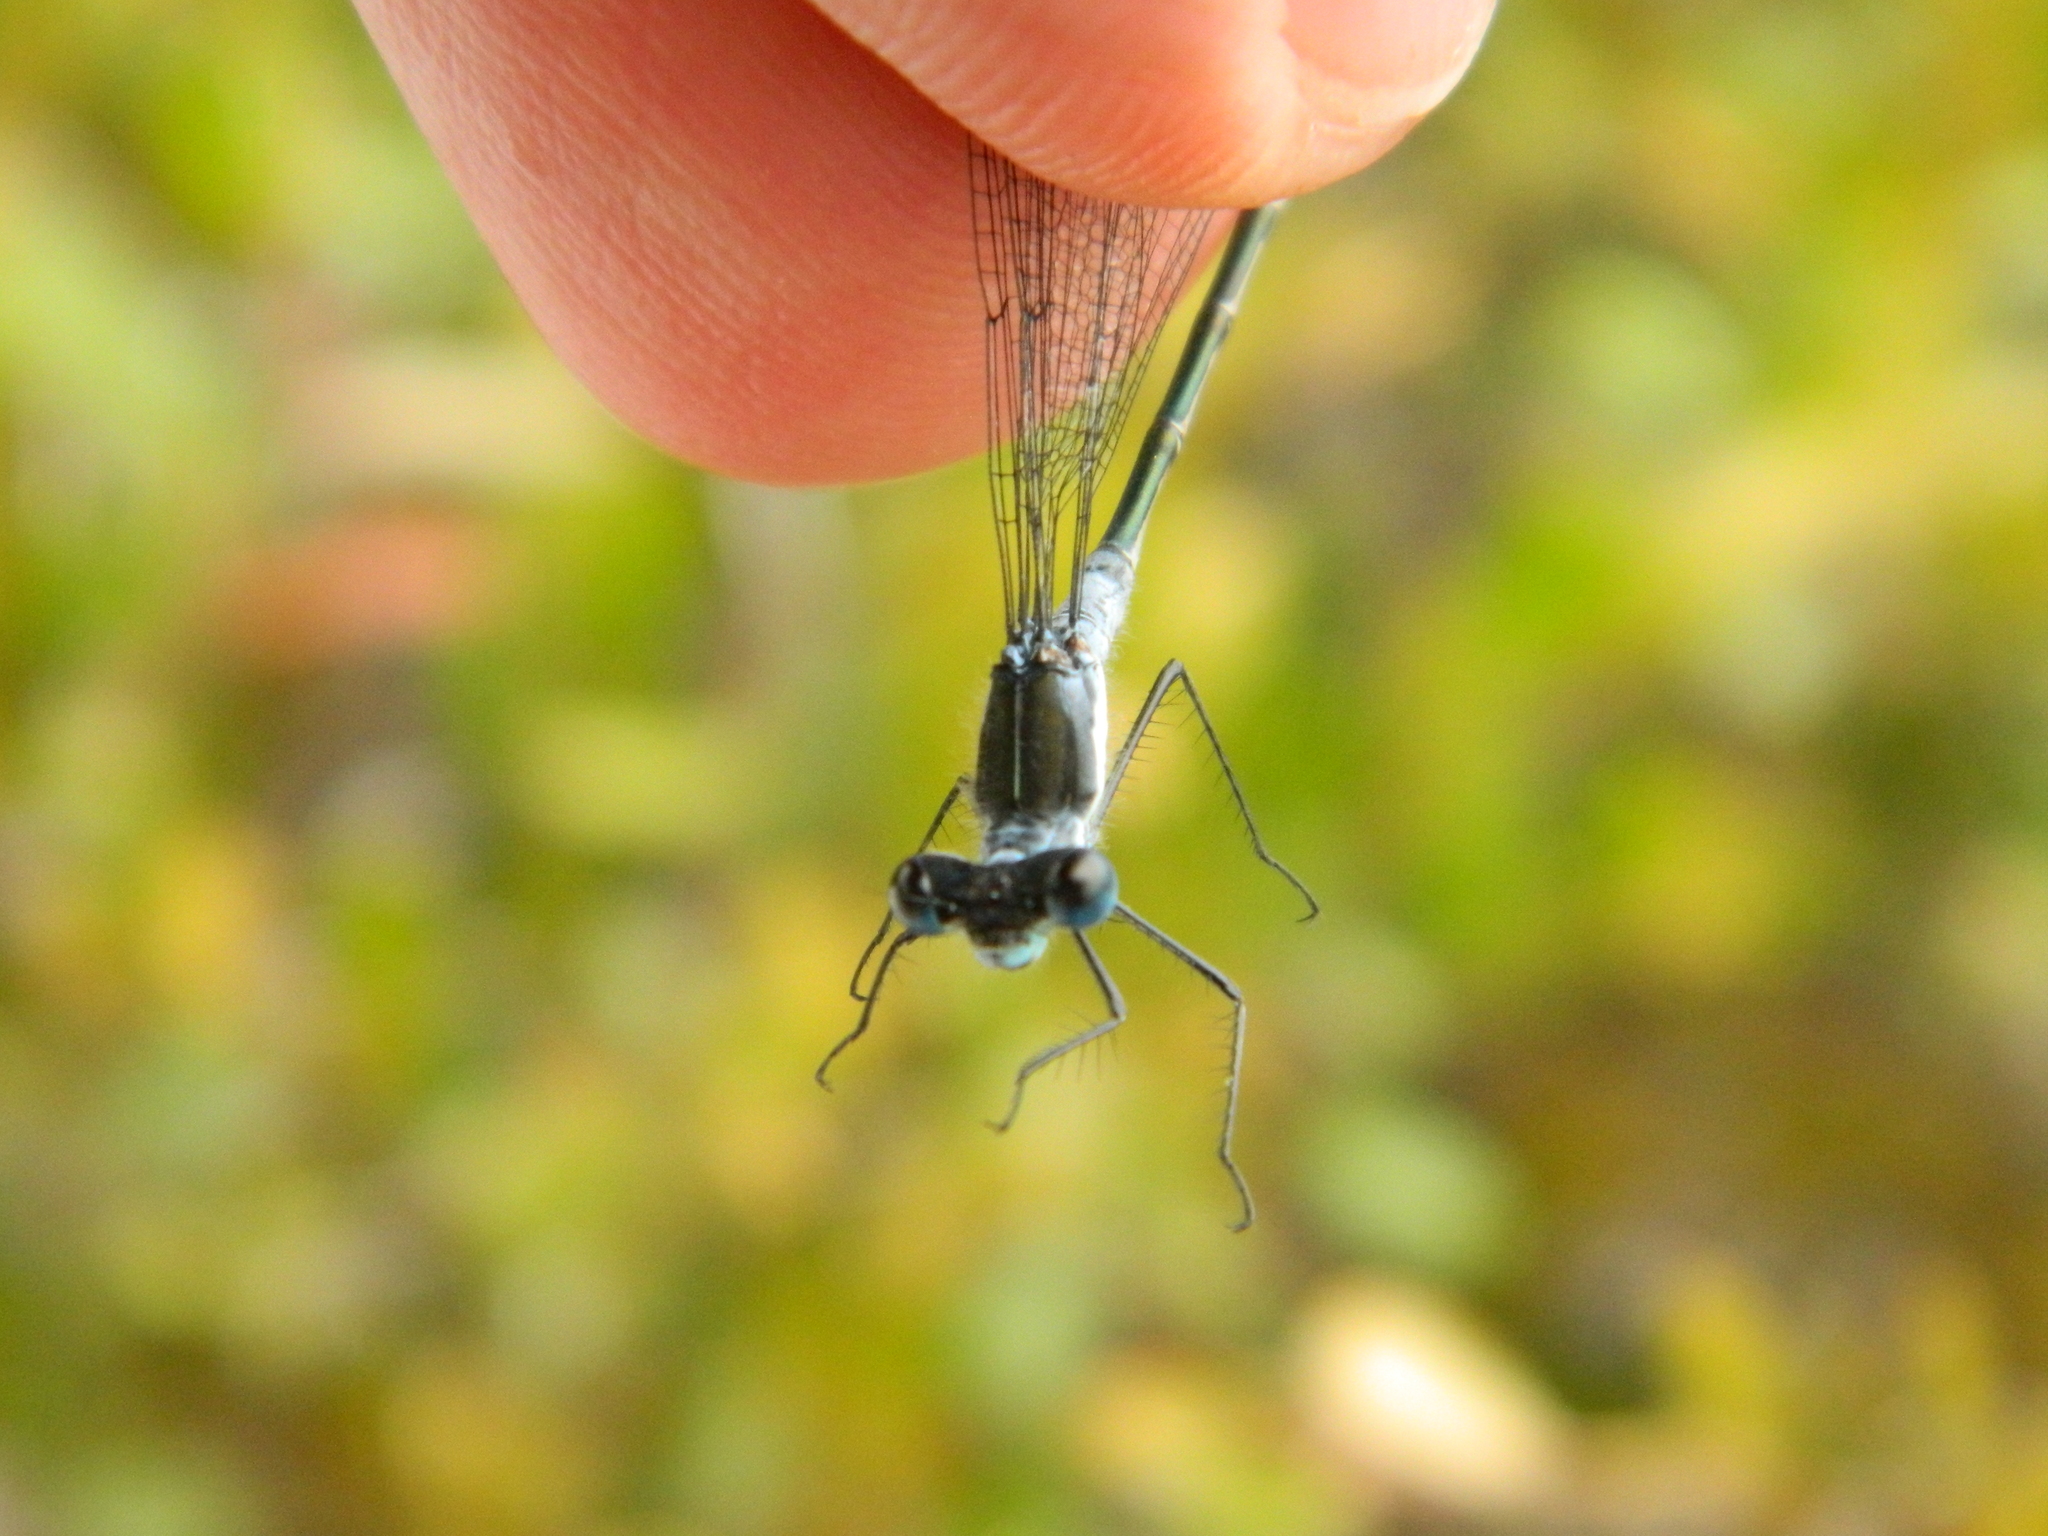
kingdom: Animalia
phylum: Arthropoda
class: Insecta
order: Odonata
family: Lestidae
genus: Lestes
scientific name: Lestes disjunctus
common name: Northern spreadwing
